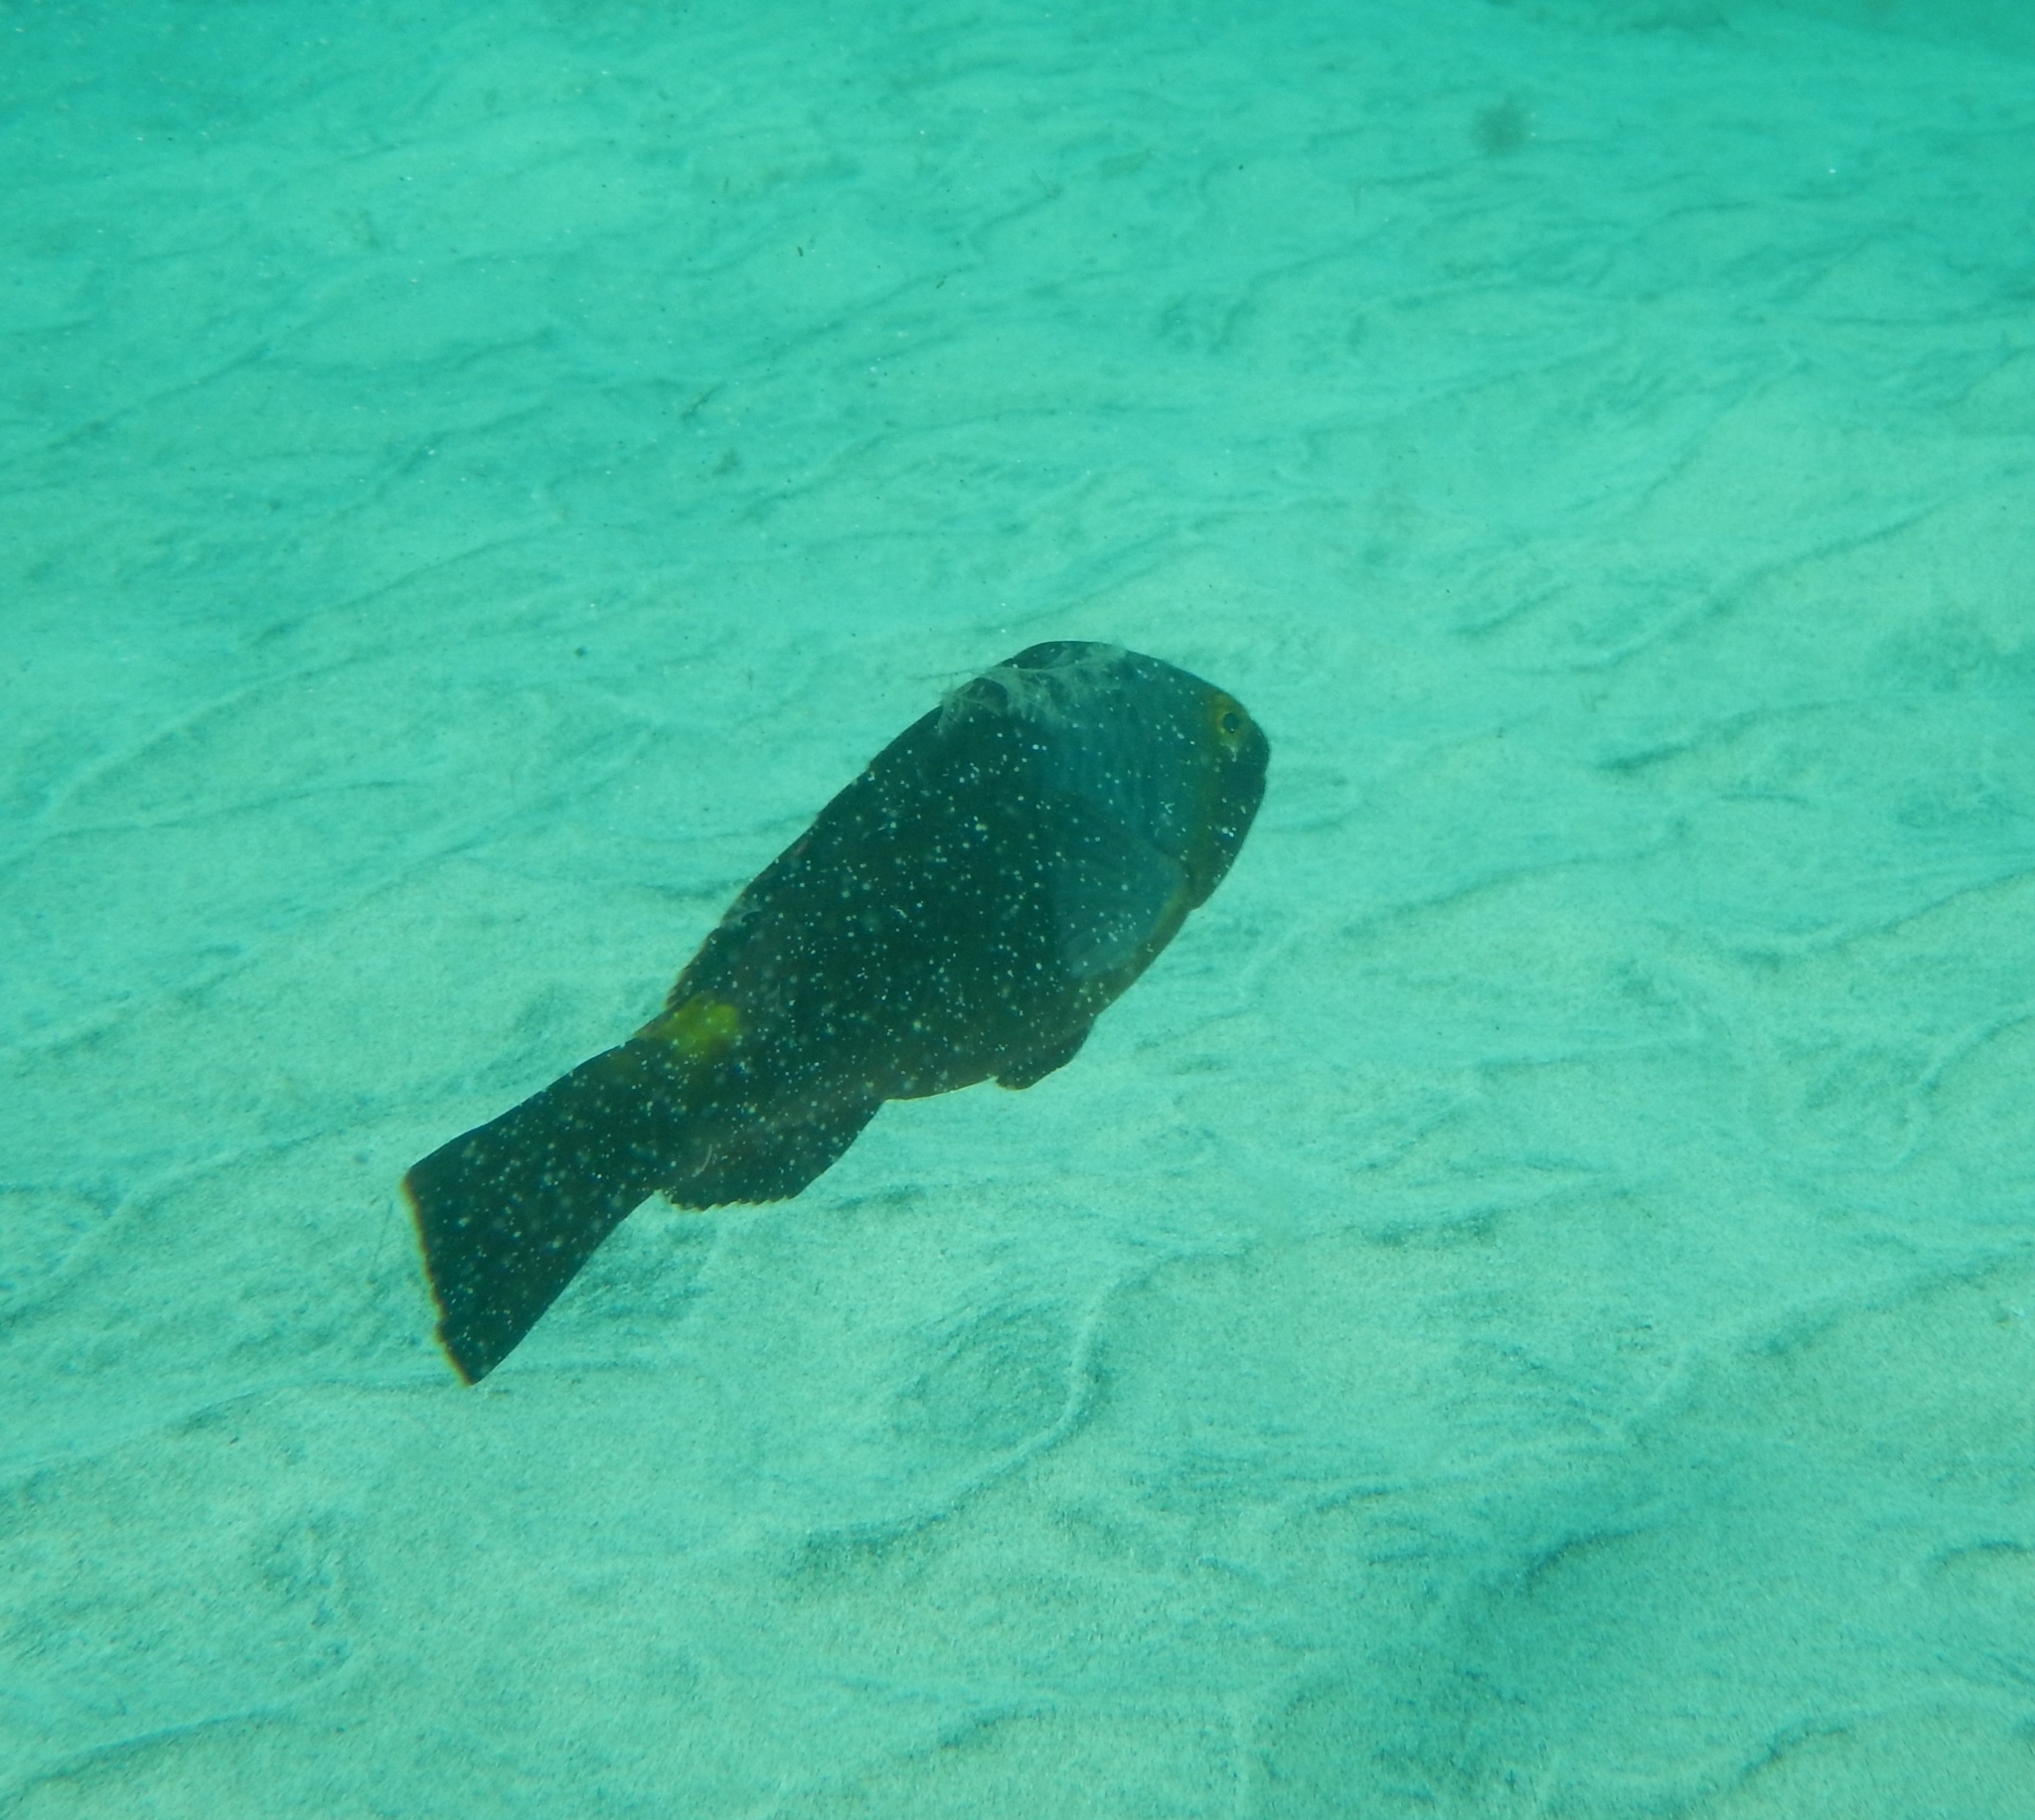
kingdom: Animalia
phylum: Chordata
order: Perciformes
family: Scaridae
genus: Sparisoma
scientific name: Sparisoma cretense
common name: Parrotfish
